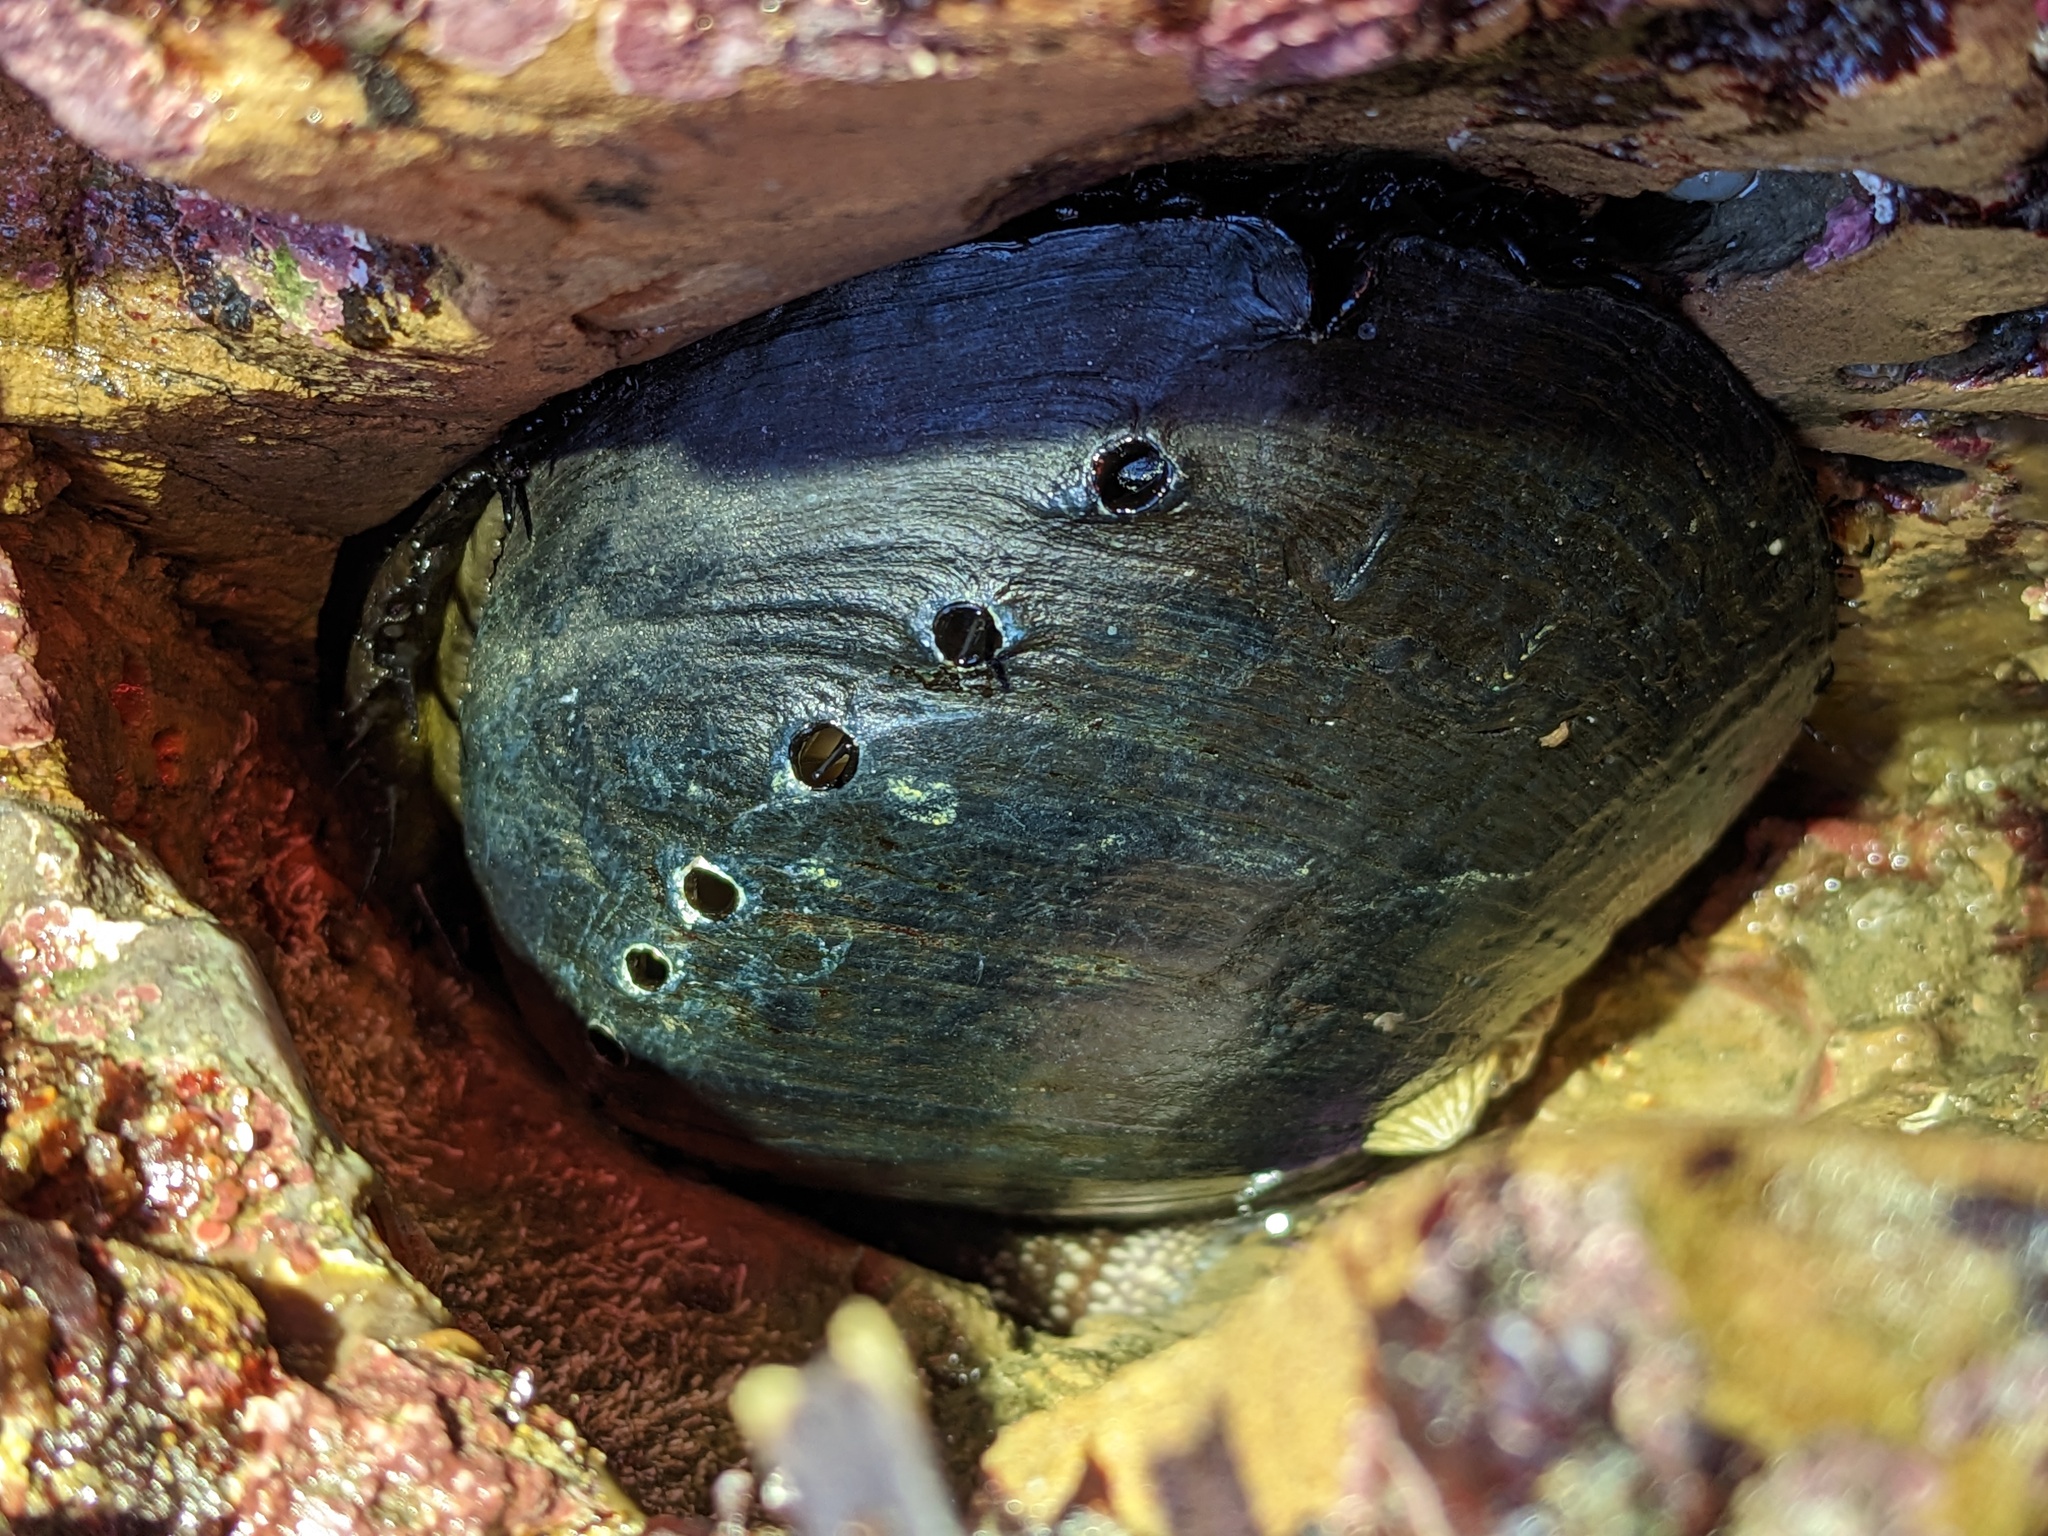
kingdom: Animalia
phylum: Mollusca
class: Gastropoda
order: Lepetellida
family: Haliotidae
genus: Haliotis
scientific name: Haliotis cracherodii
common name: Black abalone
